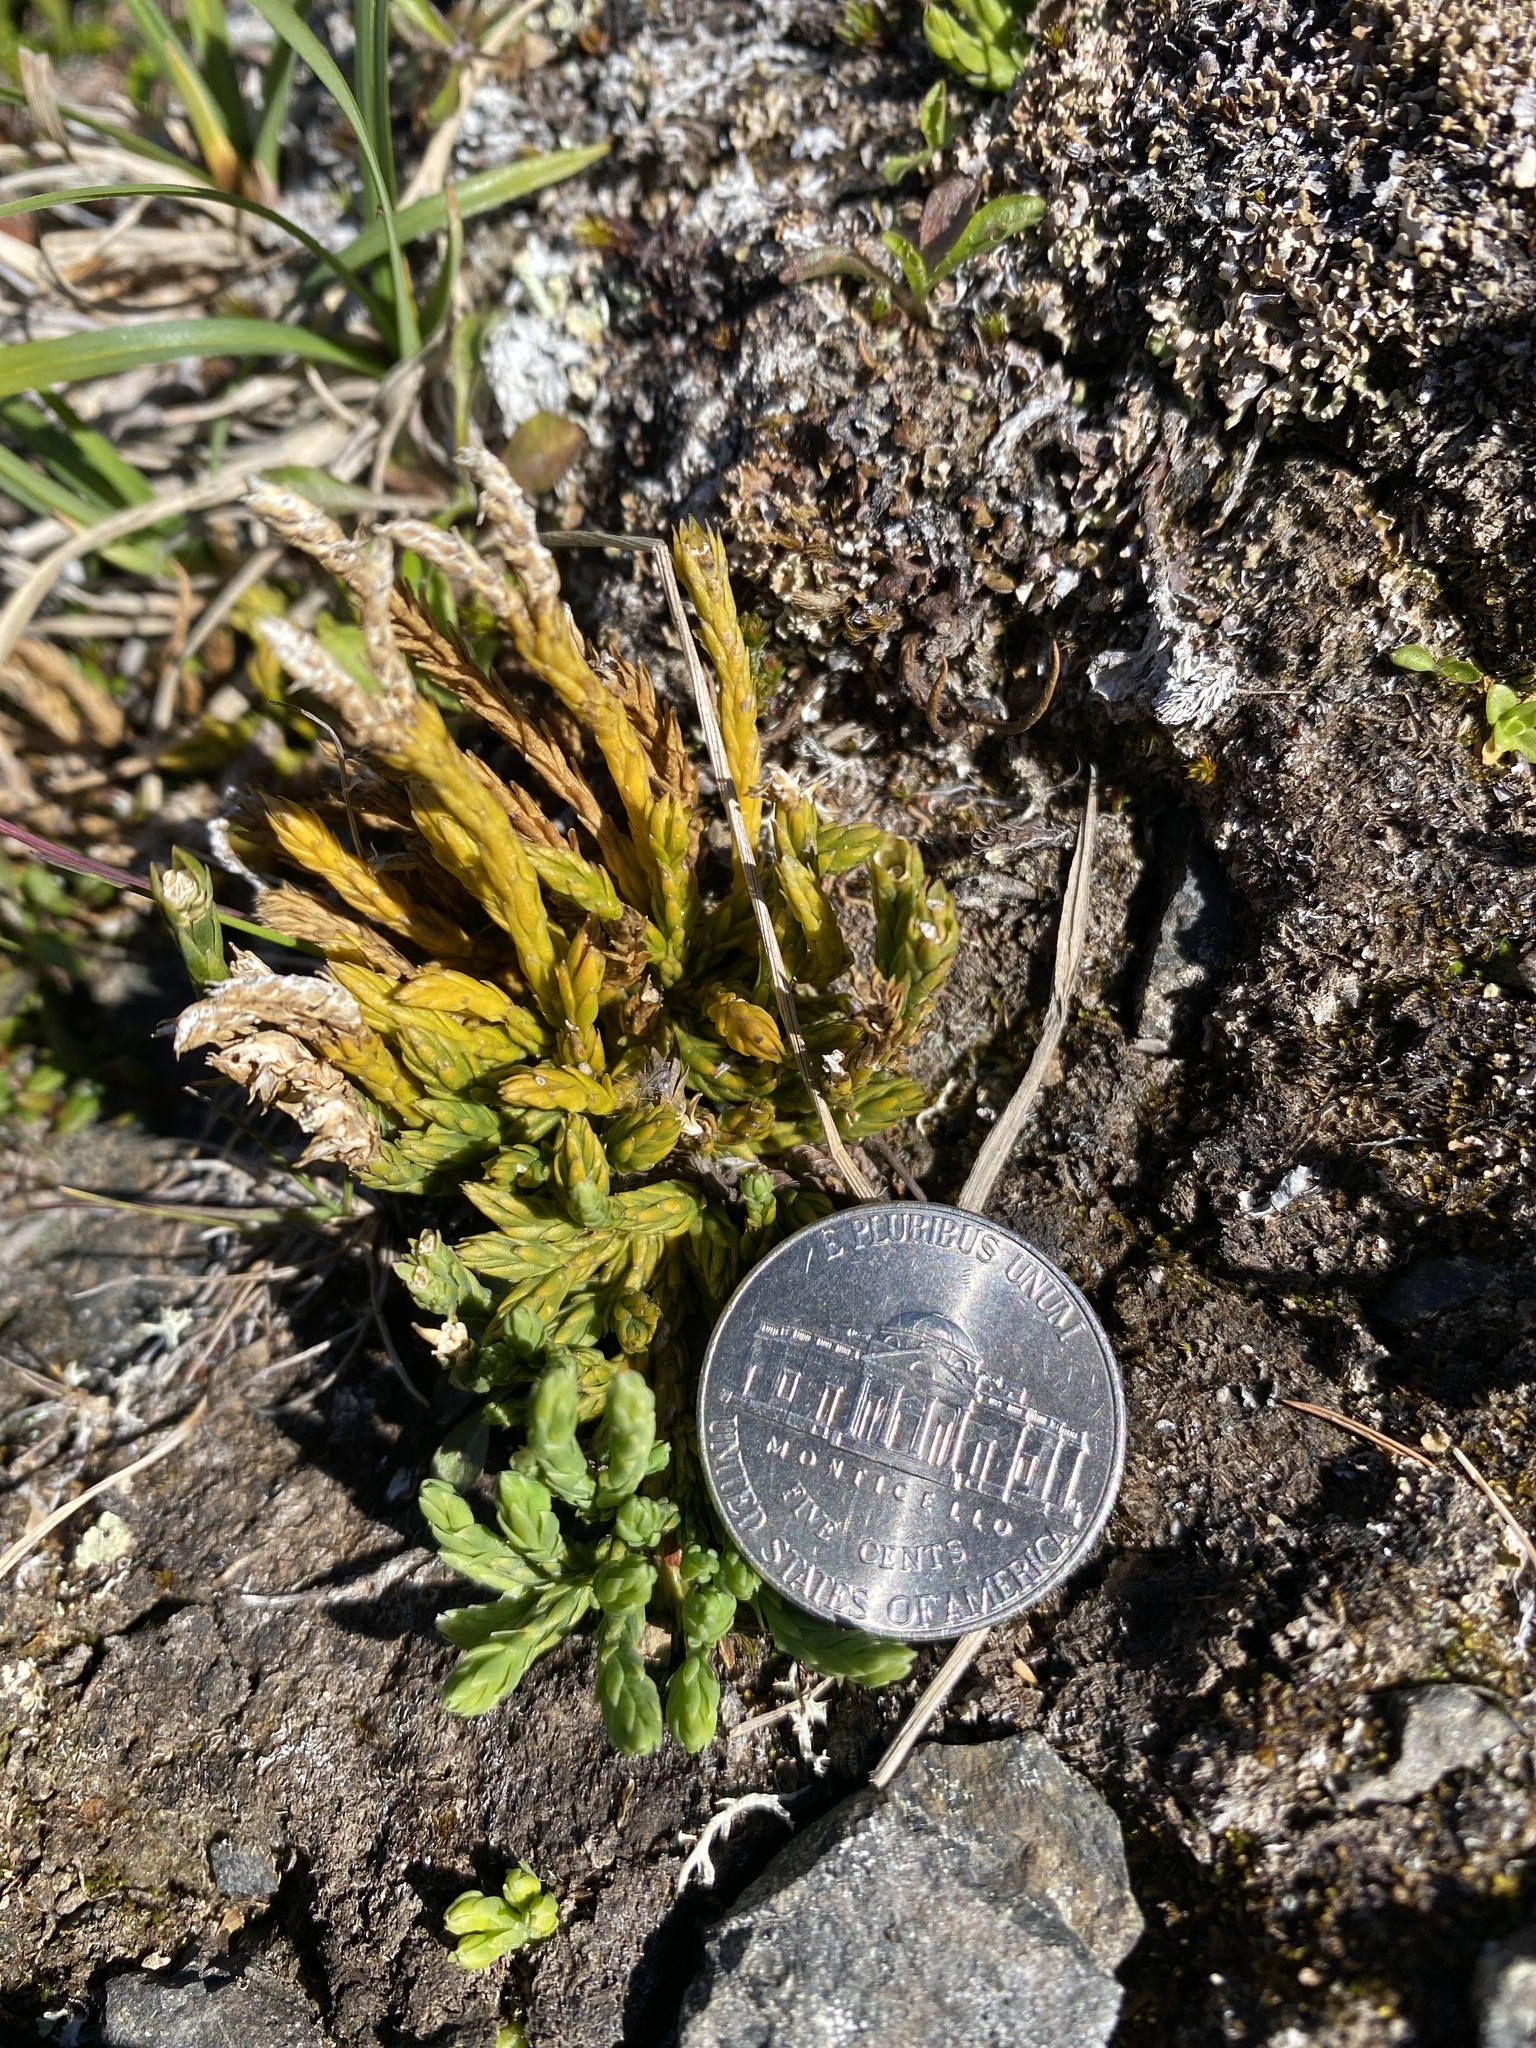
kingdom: Plantae
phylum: Tracheophyta
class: Lycopodiopsida
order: Lycopodiales
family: Lycopodiaceae
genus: Diphasiastrum
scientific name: Diphasiastrum alpinum
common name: Alpine clubmoss
